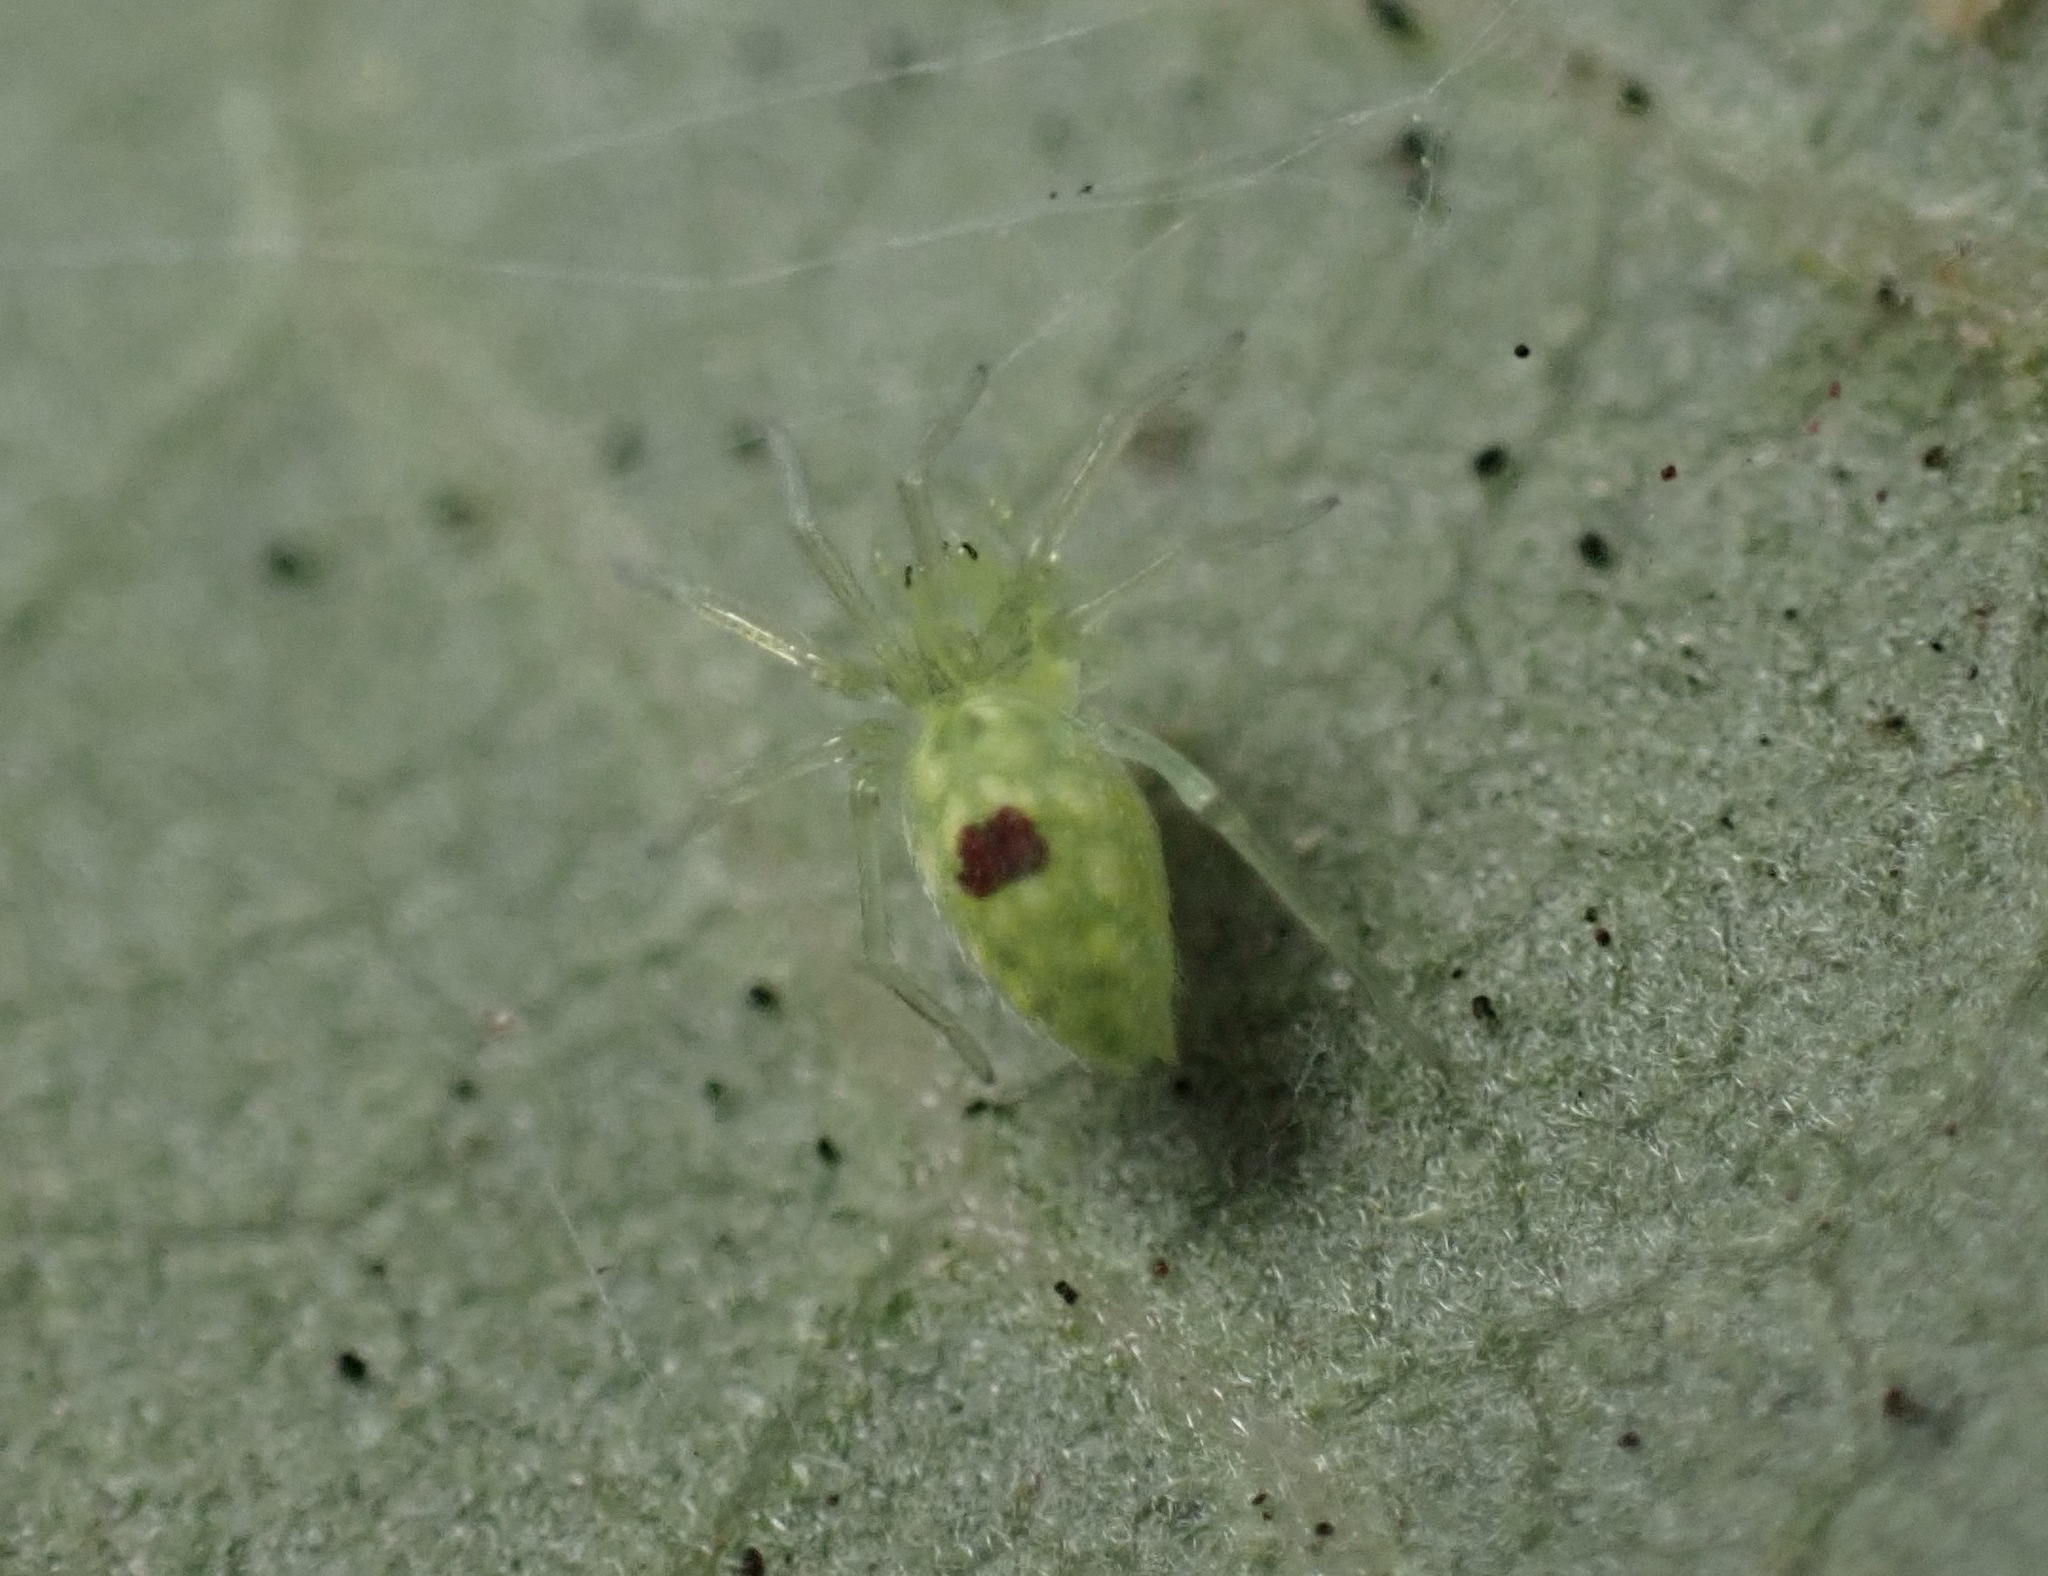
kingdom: Animalia
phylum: Arthropoda
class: Arachnida
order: Araneae
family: Dictynidae
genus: Nigma
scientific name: Nigma linsdalei
